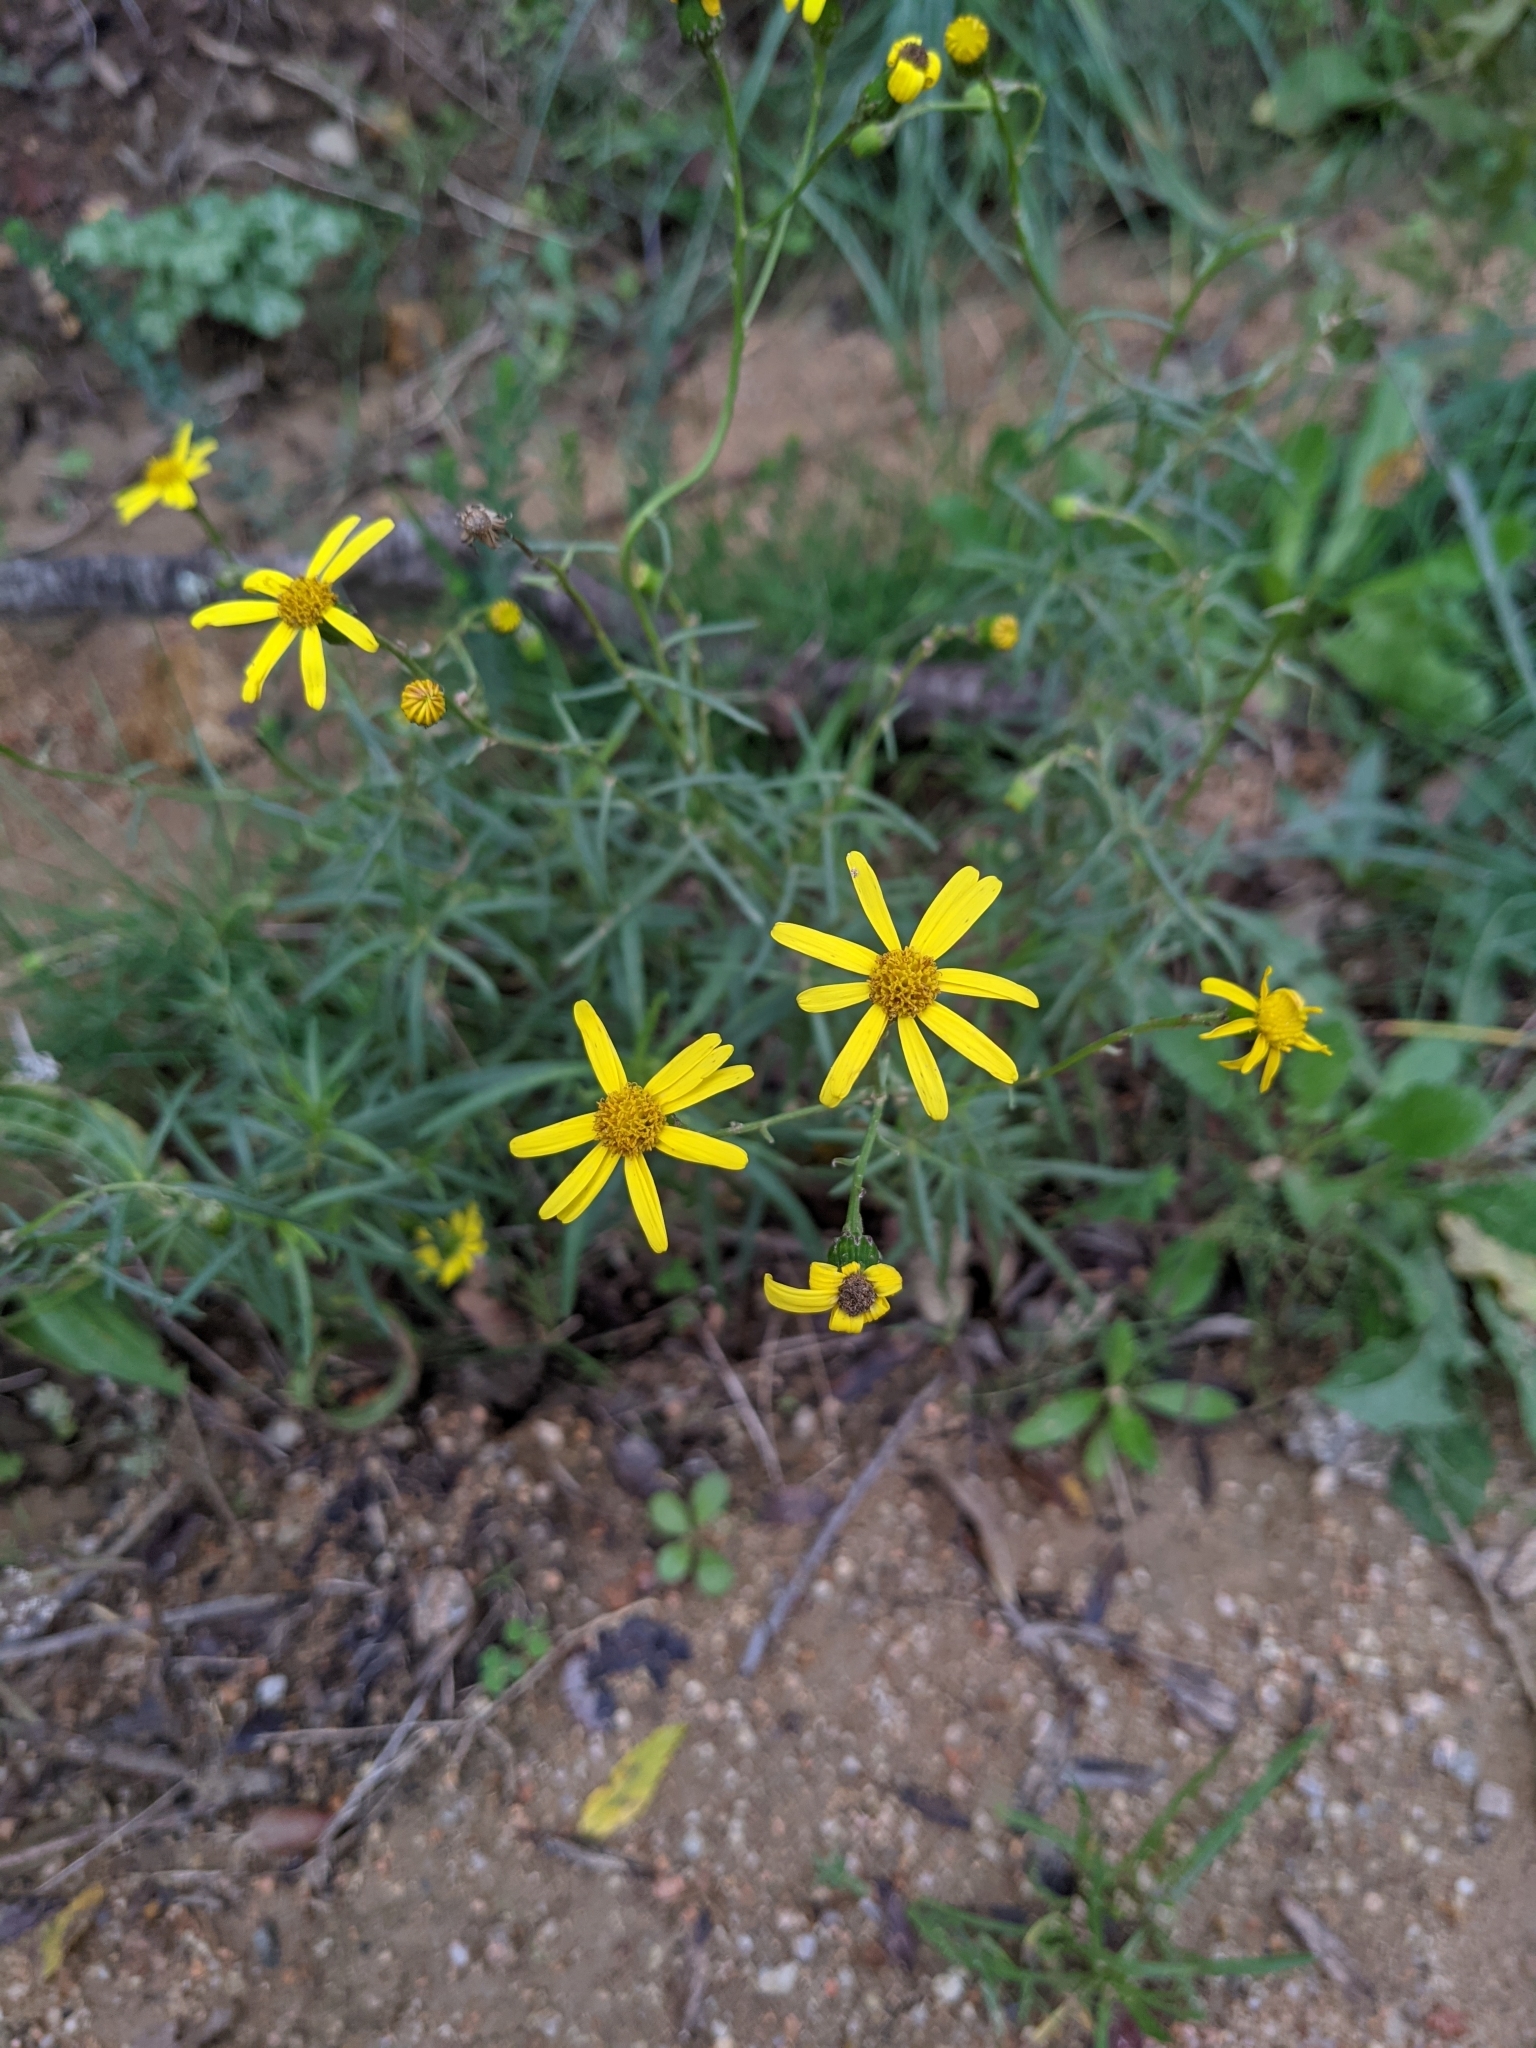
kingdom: Plantae
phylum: Tracheophyta
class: Magnoliopsida
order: Asterales
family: Asteraceae
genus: Senecio
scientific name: Senecio inaequidens
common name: Narrow-leaved ragwort
